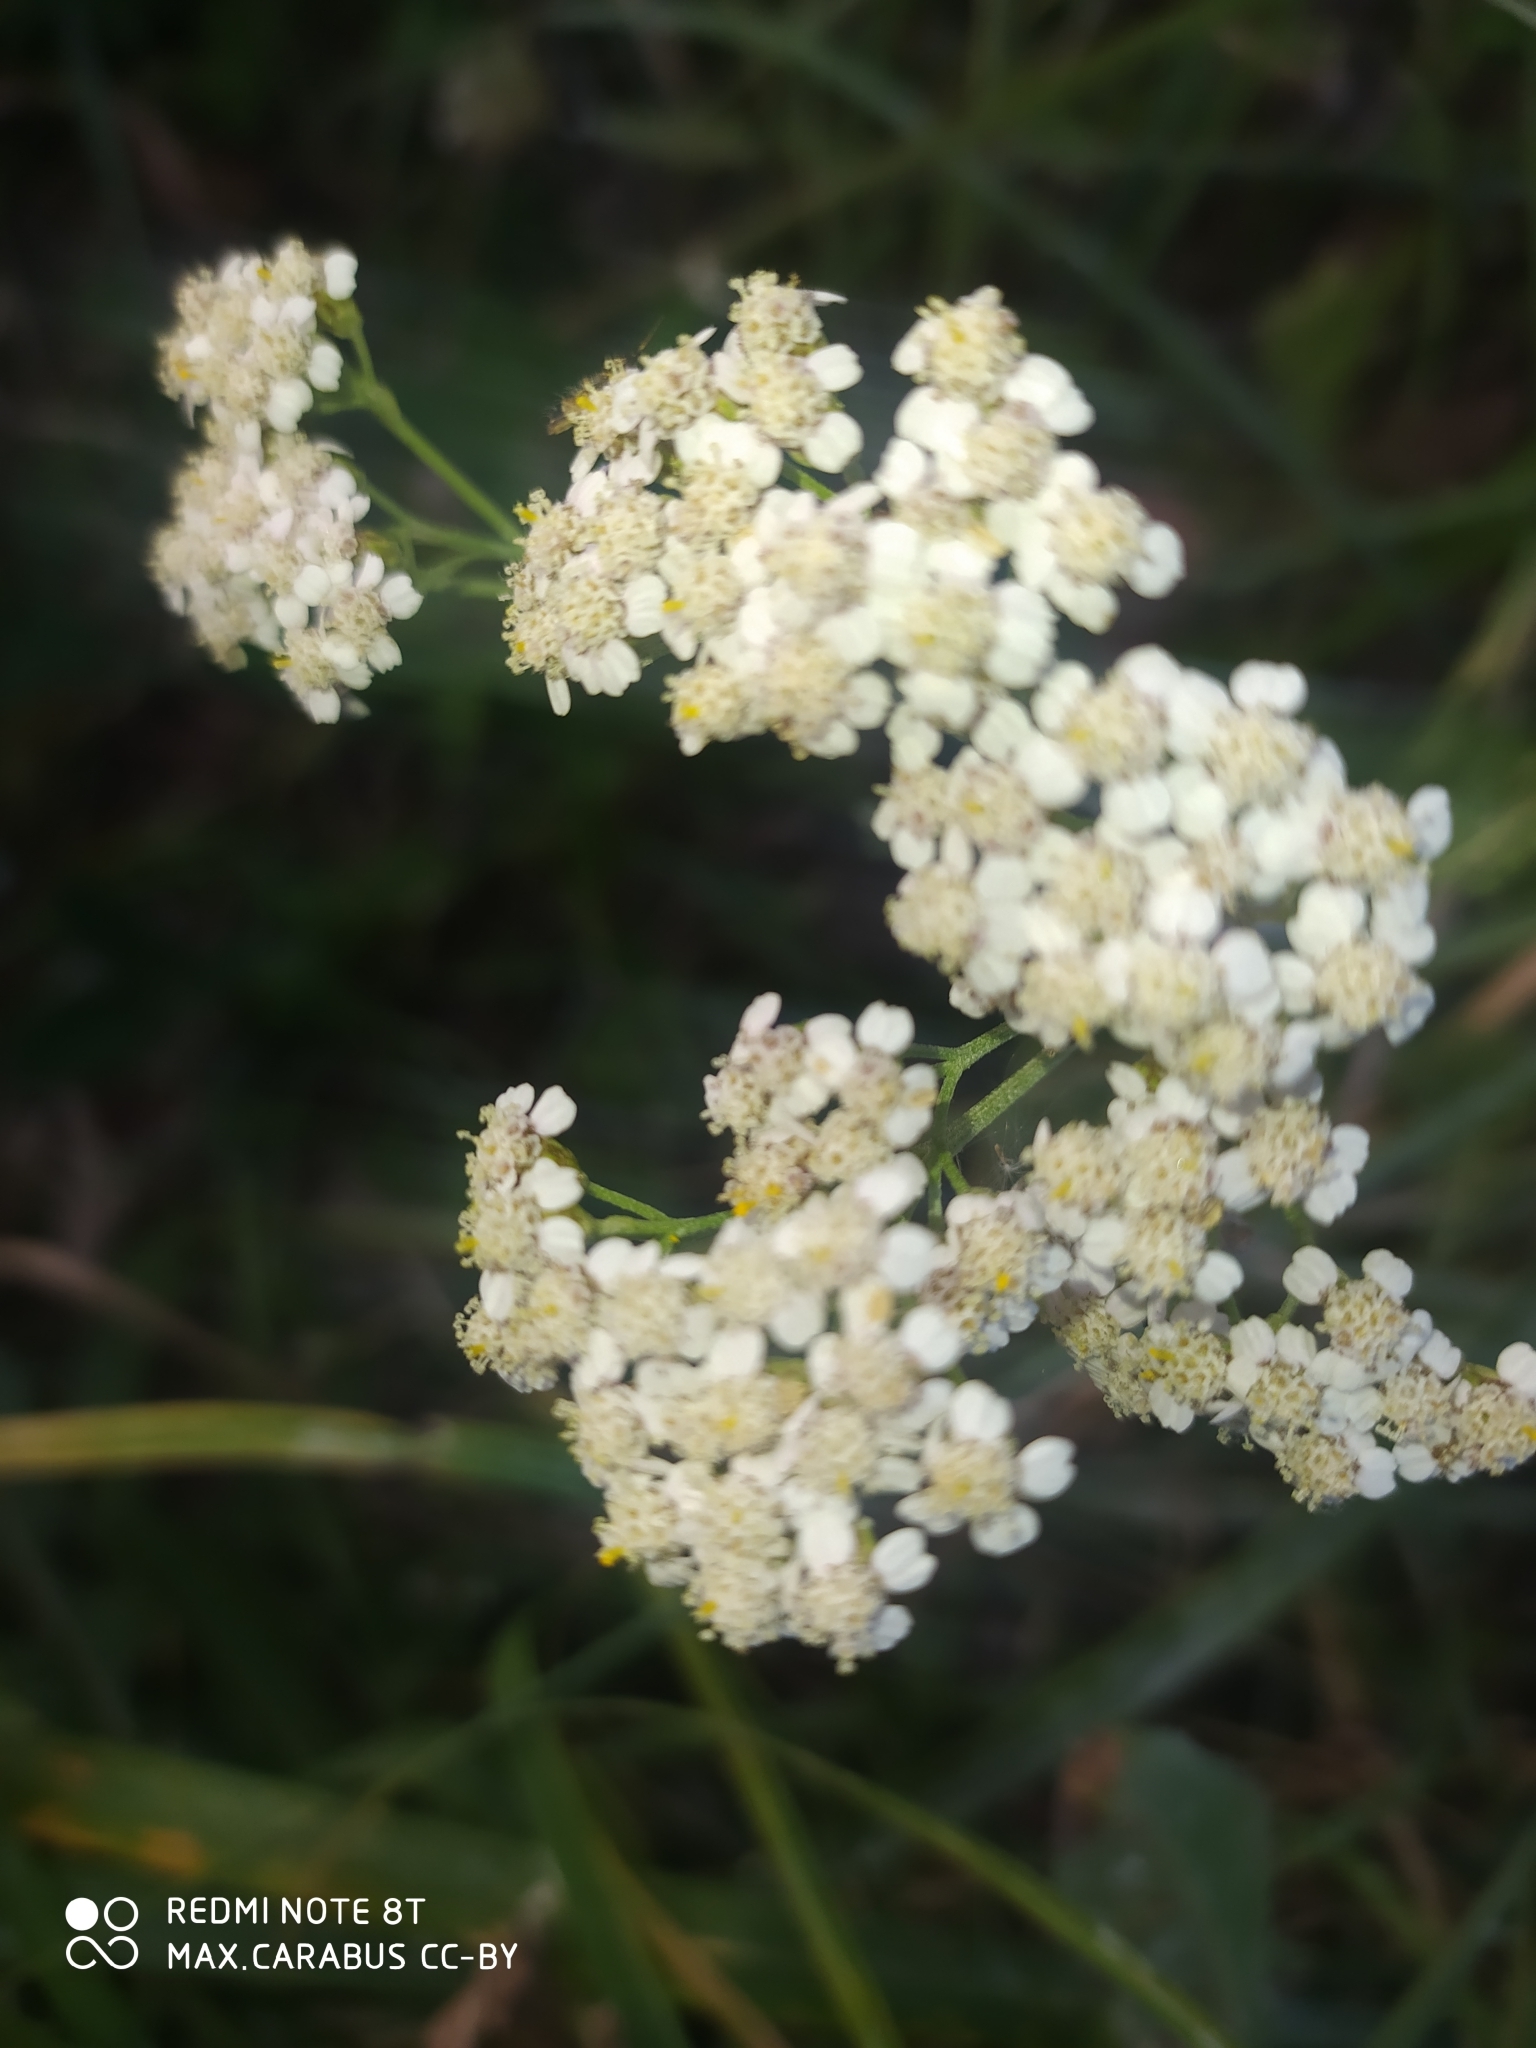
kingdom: Plantae
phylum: Tracheophyta
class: Magnoliopsida
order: Asterales
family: Asteraceae
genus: Achillea
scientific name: Achillea millefolium
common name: Yarrow
